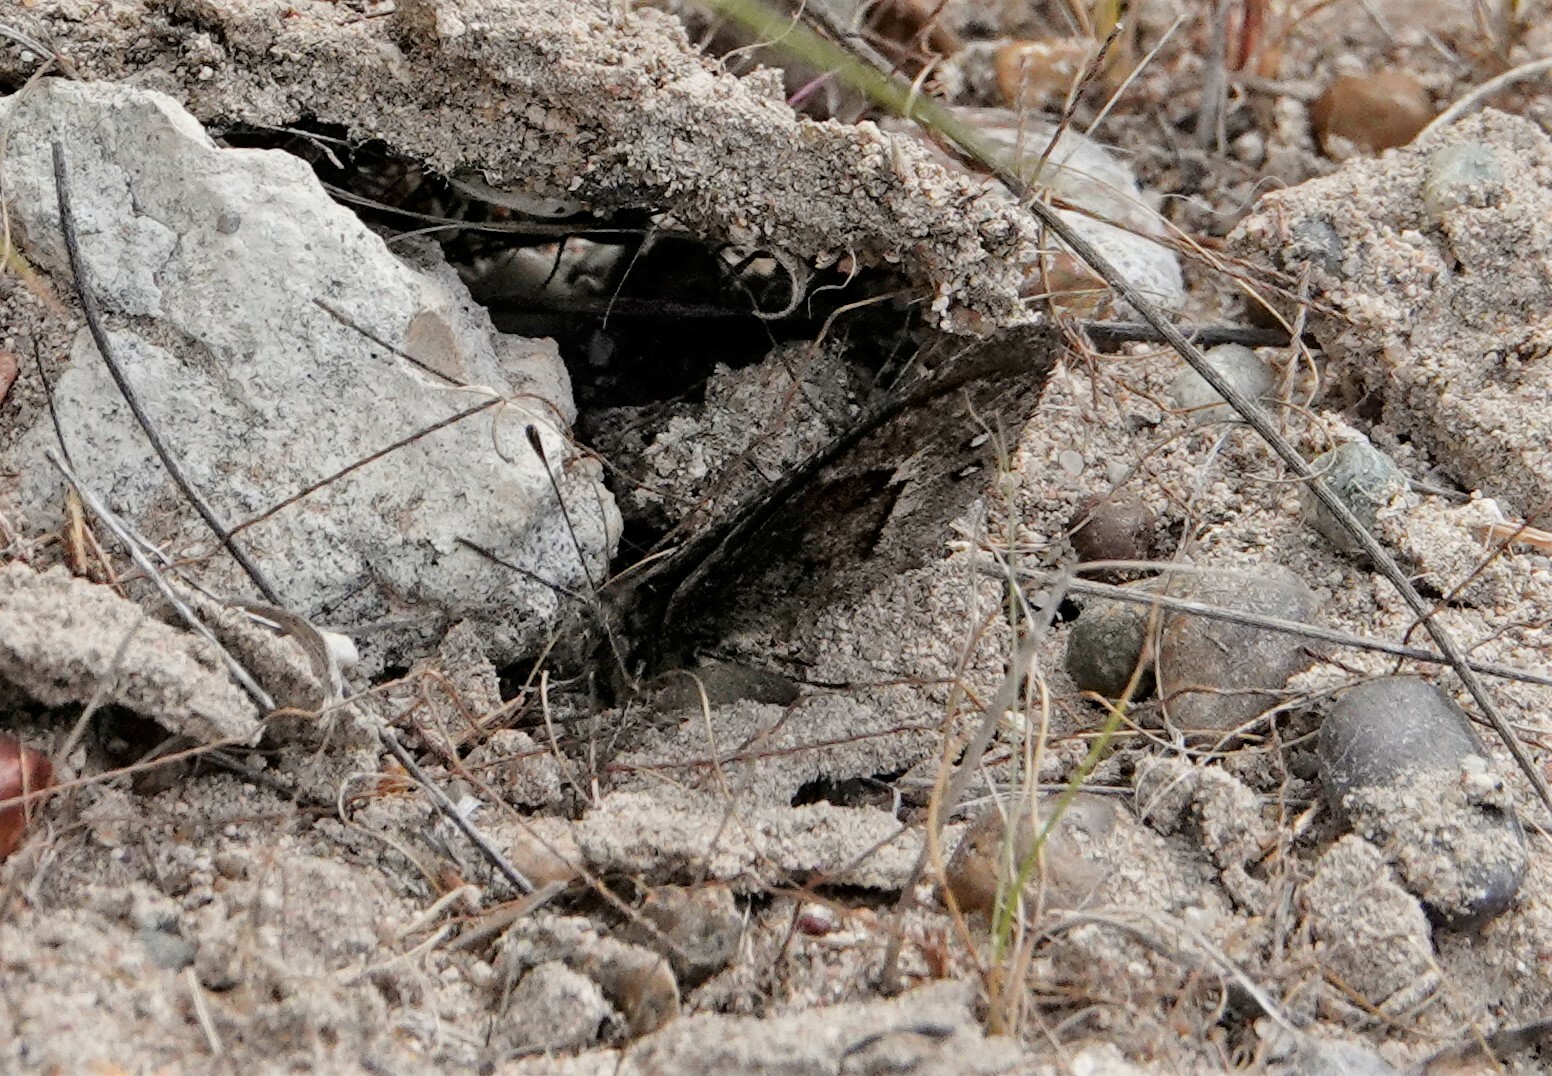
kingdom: Animalia
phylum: Arthropoda
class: Insecta
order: Lepidoptera
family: Nymphalidae
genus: Faunula
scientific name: Faunula patagonica
